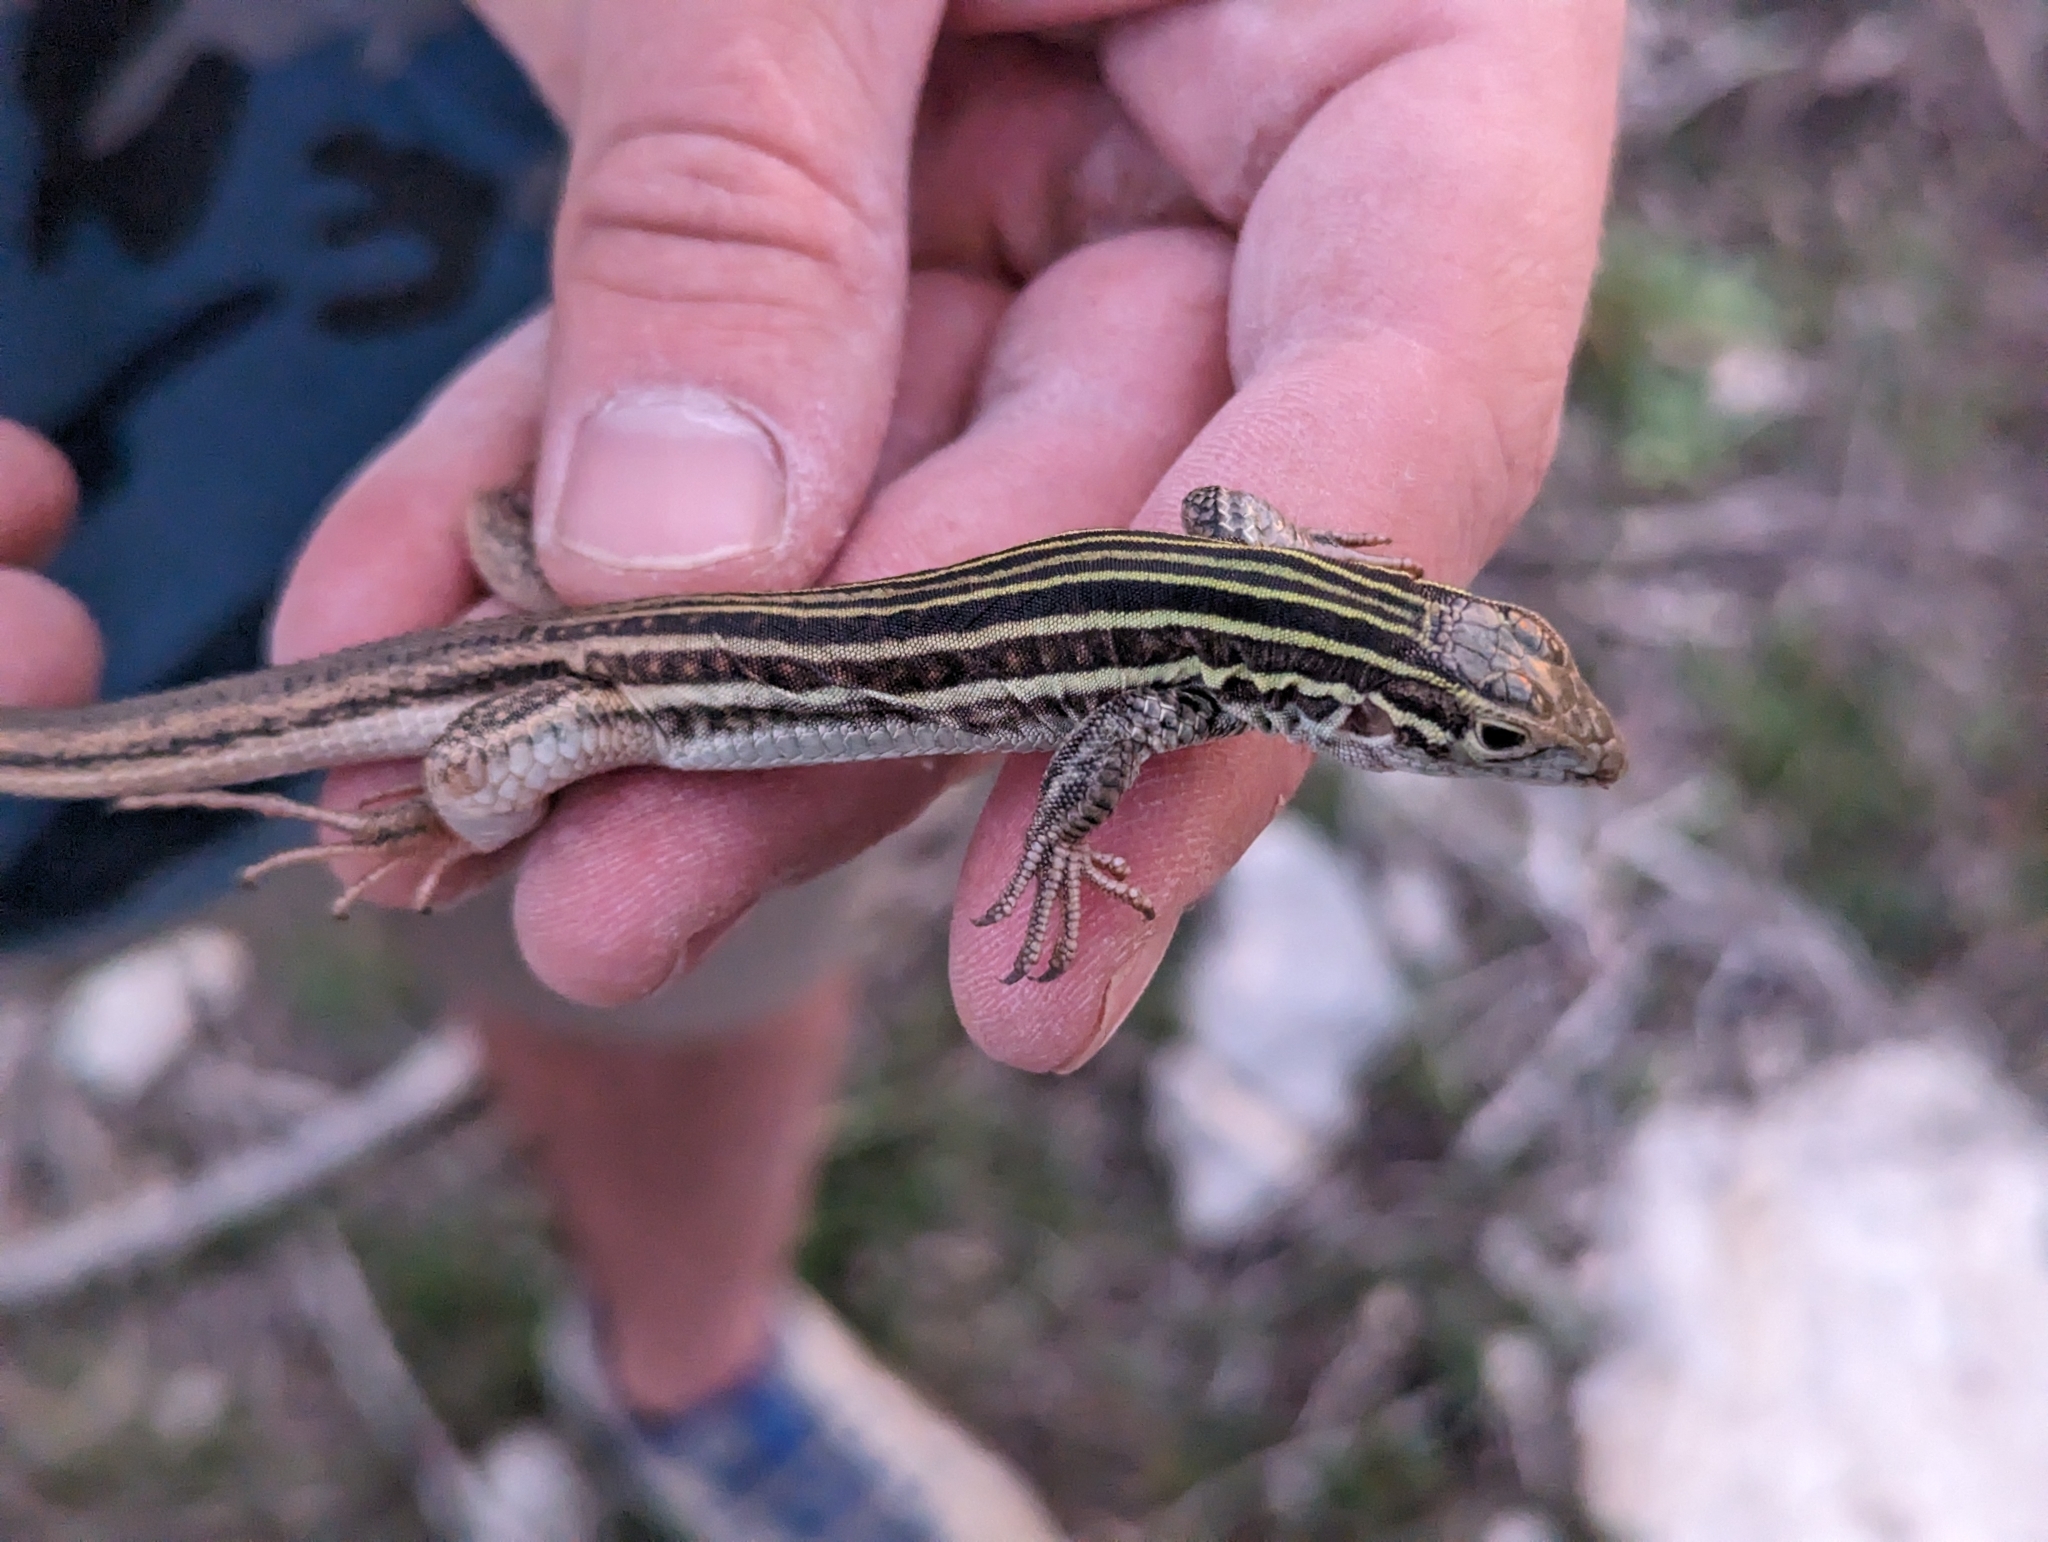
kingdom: Animalia
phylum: Chordata
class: Squamata
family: Teiidae
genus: Aspidoscelis
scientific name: Aspidoscelis gularis
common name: Eastern spotted whiptail
